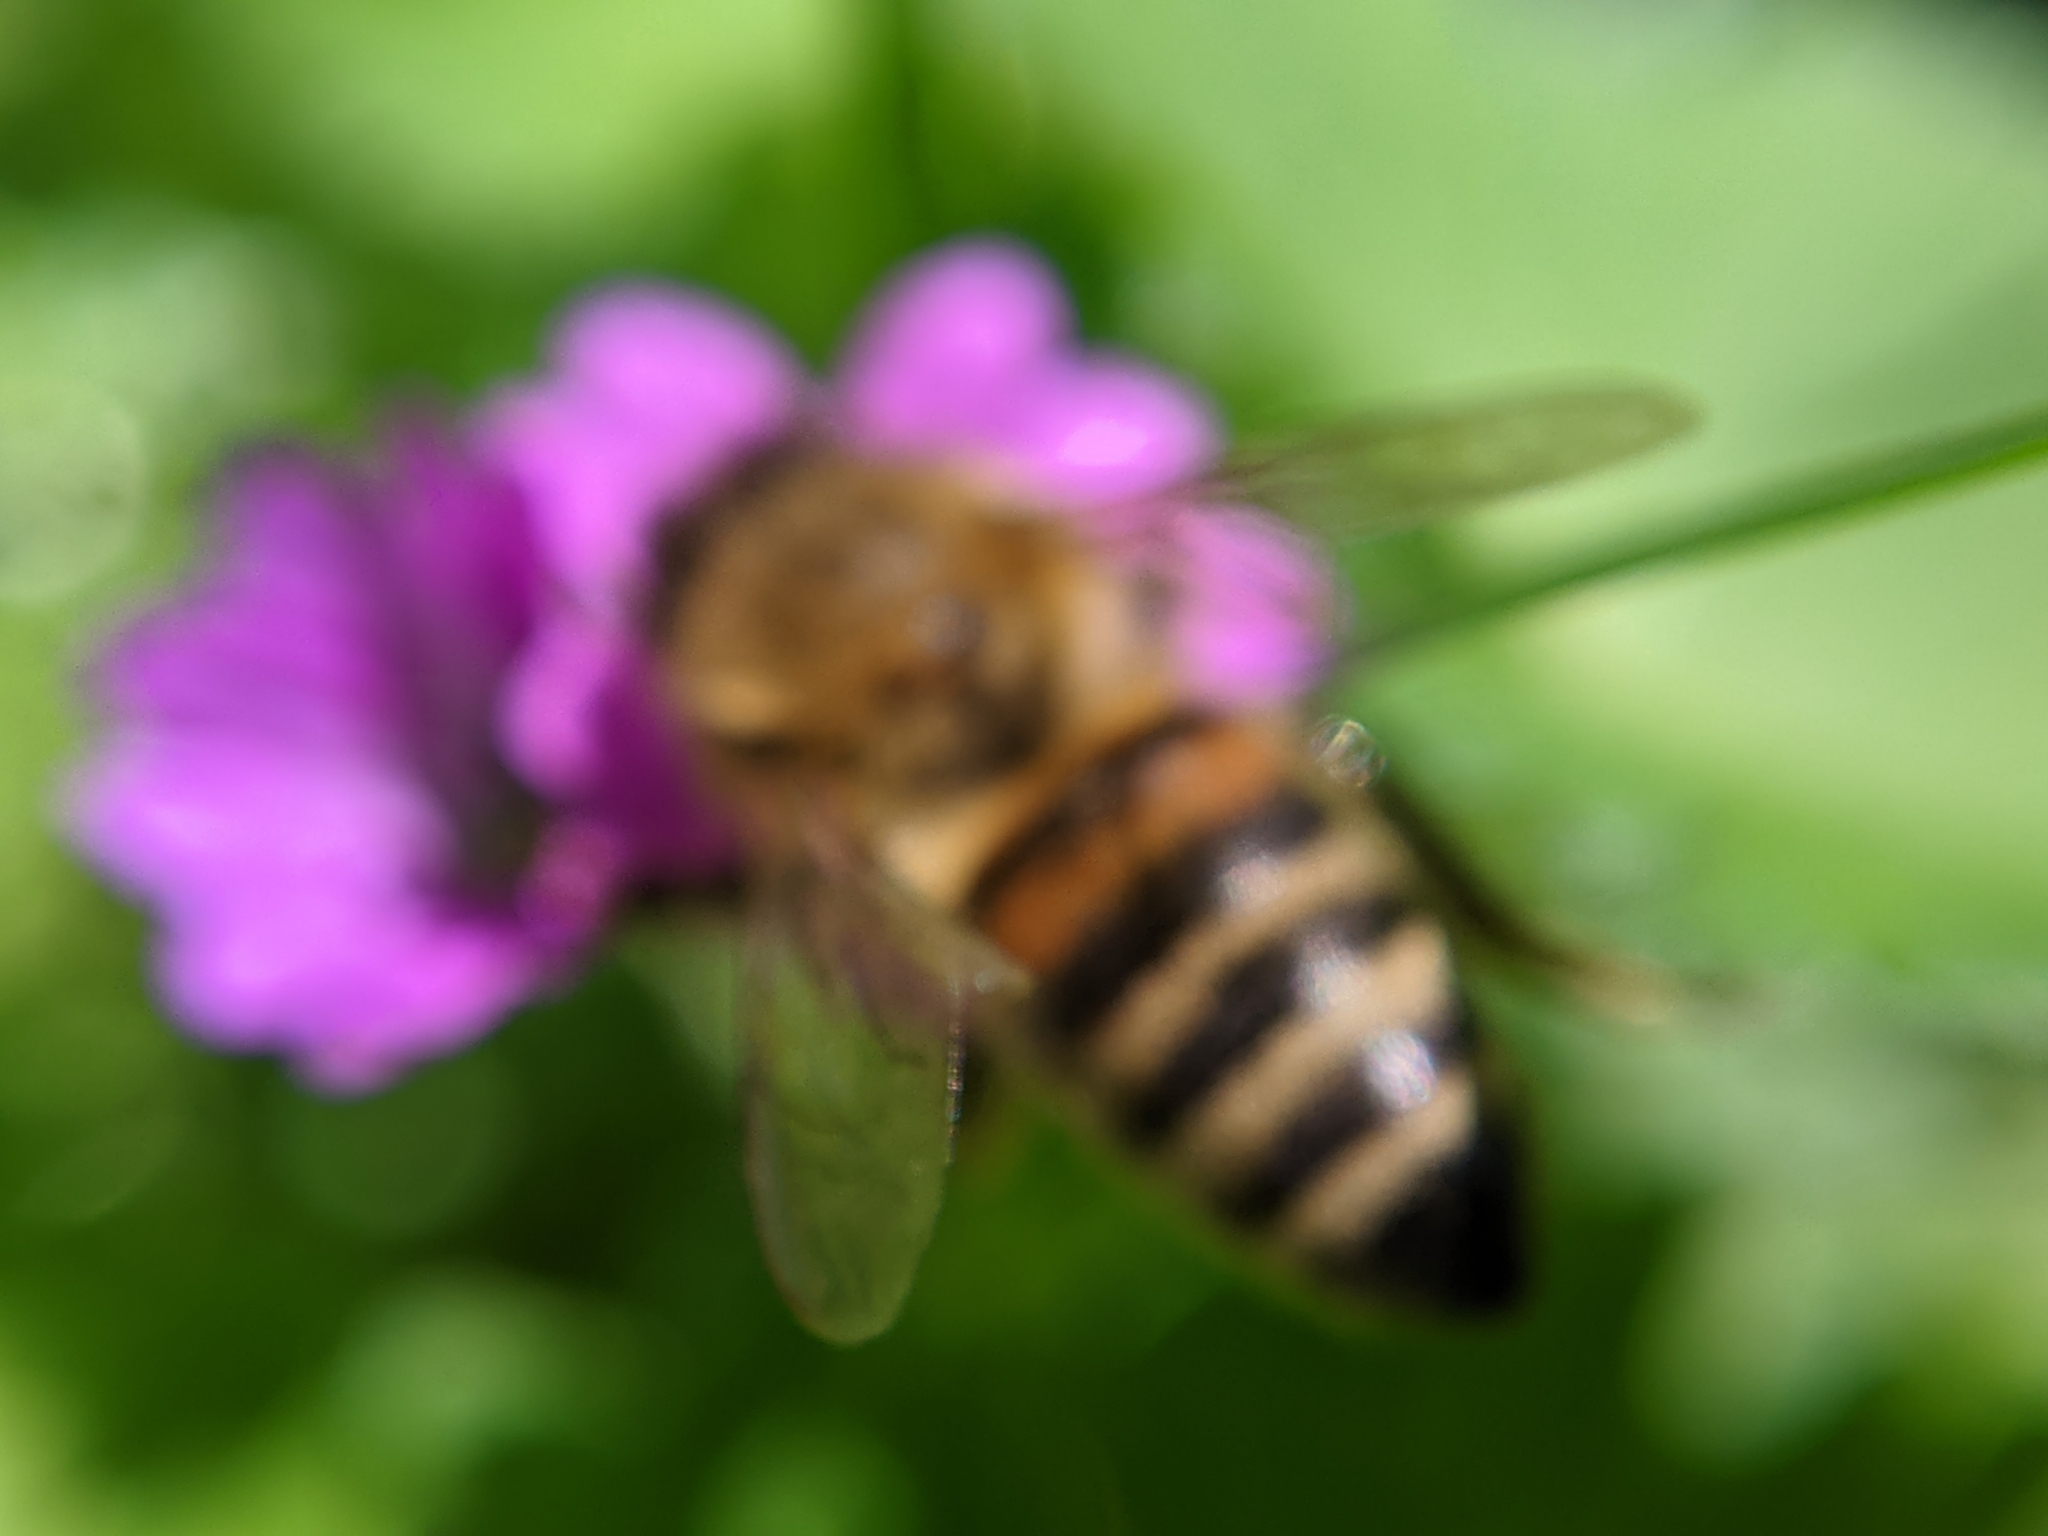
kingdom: Animalia
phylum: Arthropoda
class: Insecta
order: Hymenoptera
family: Apidae
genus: Apis
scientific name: Apis mellifera
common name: Honey bee
